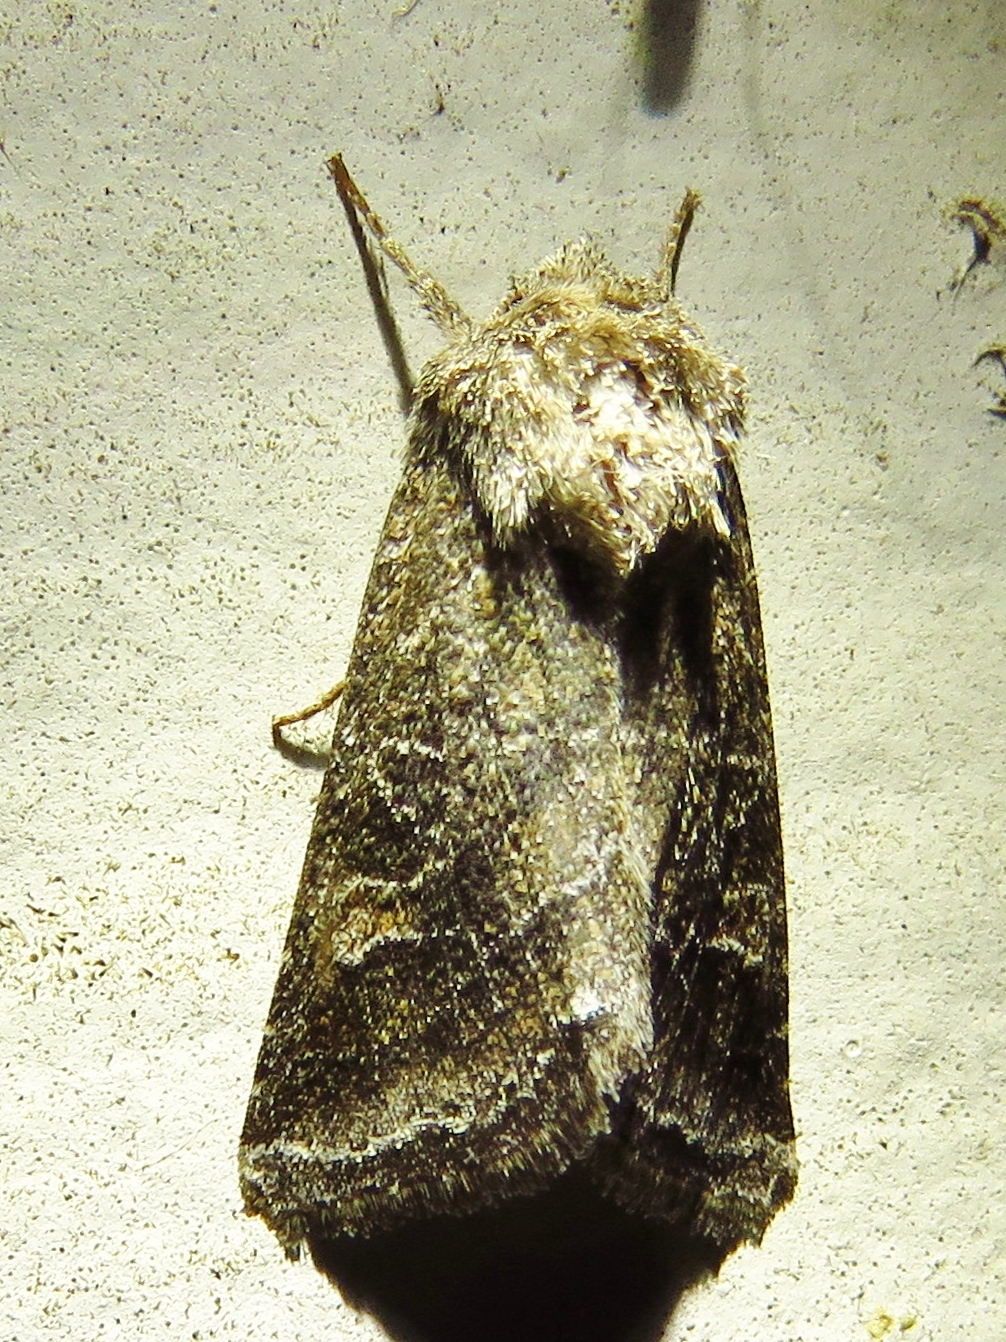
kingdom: Animalia
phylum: Arthropoda
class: Insecta
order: Lepidoptera
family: Noctuidae
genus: Lacinipolia
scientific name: Lacinipolia erecta
